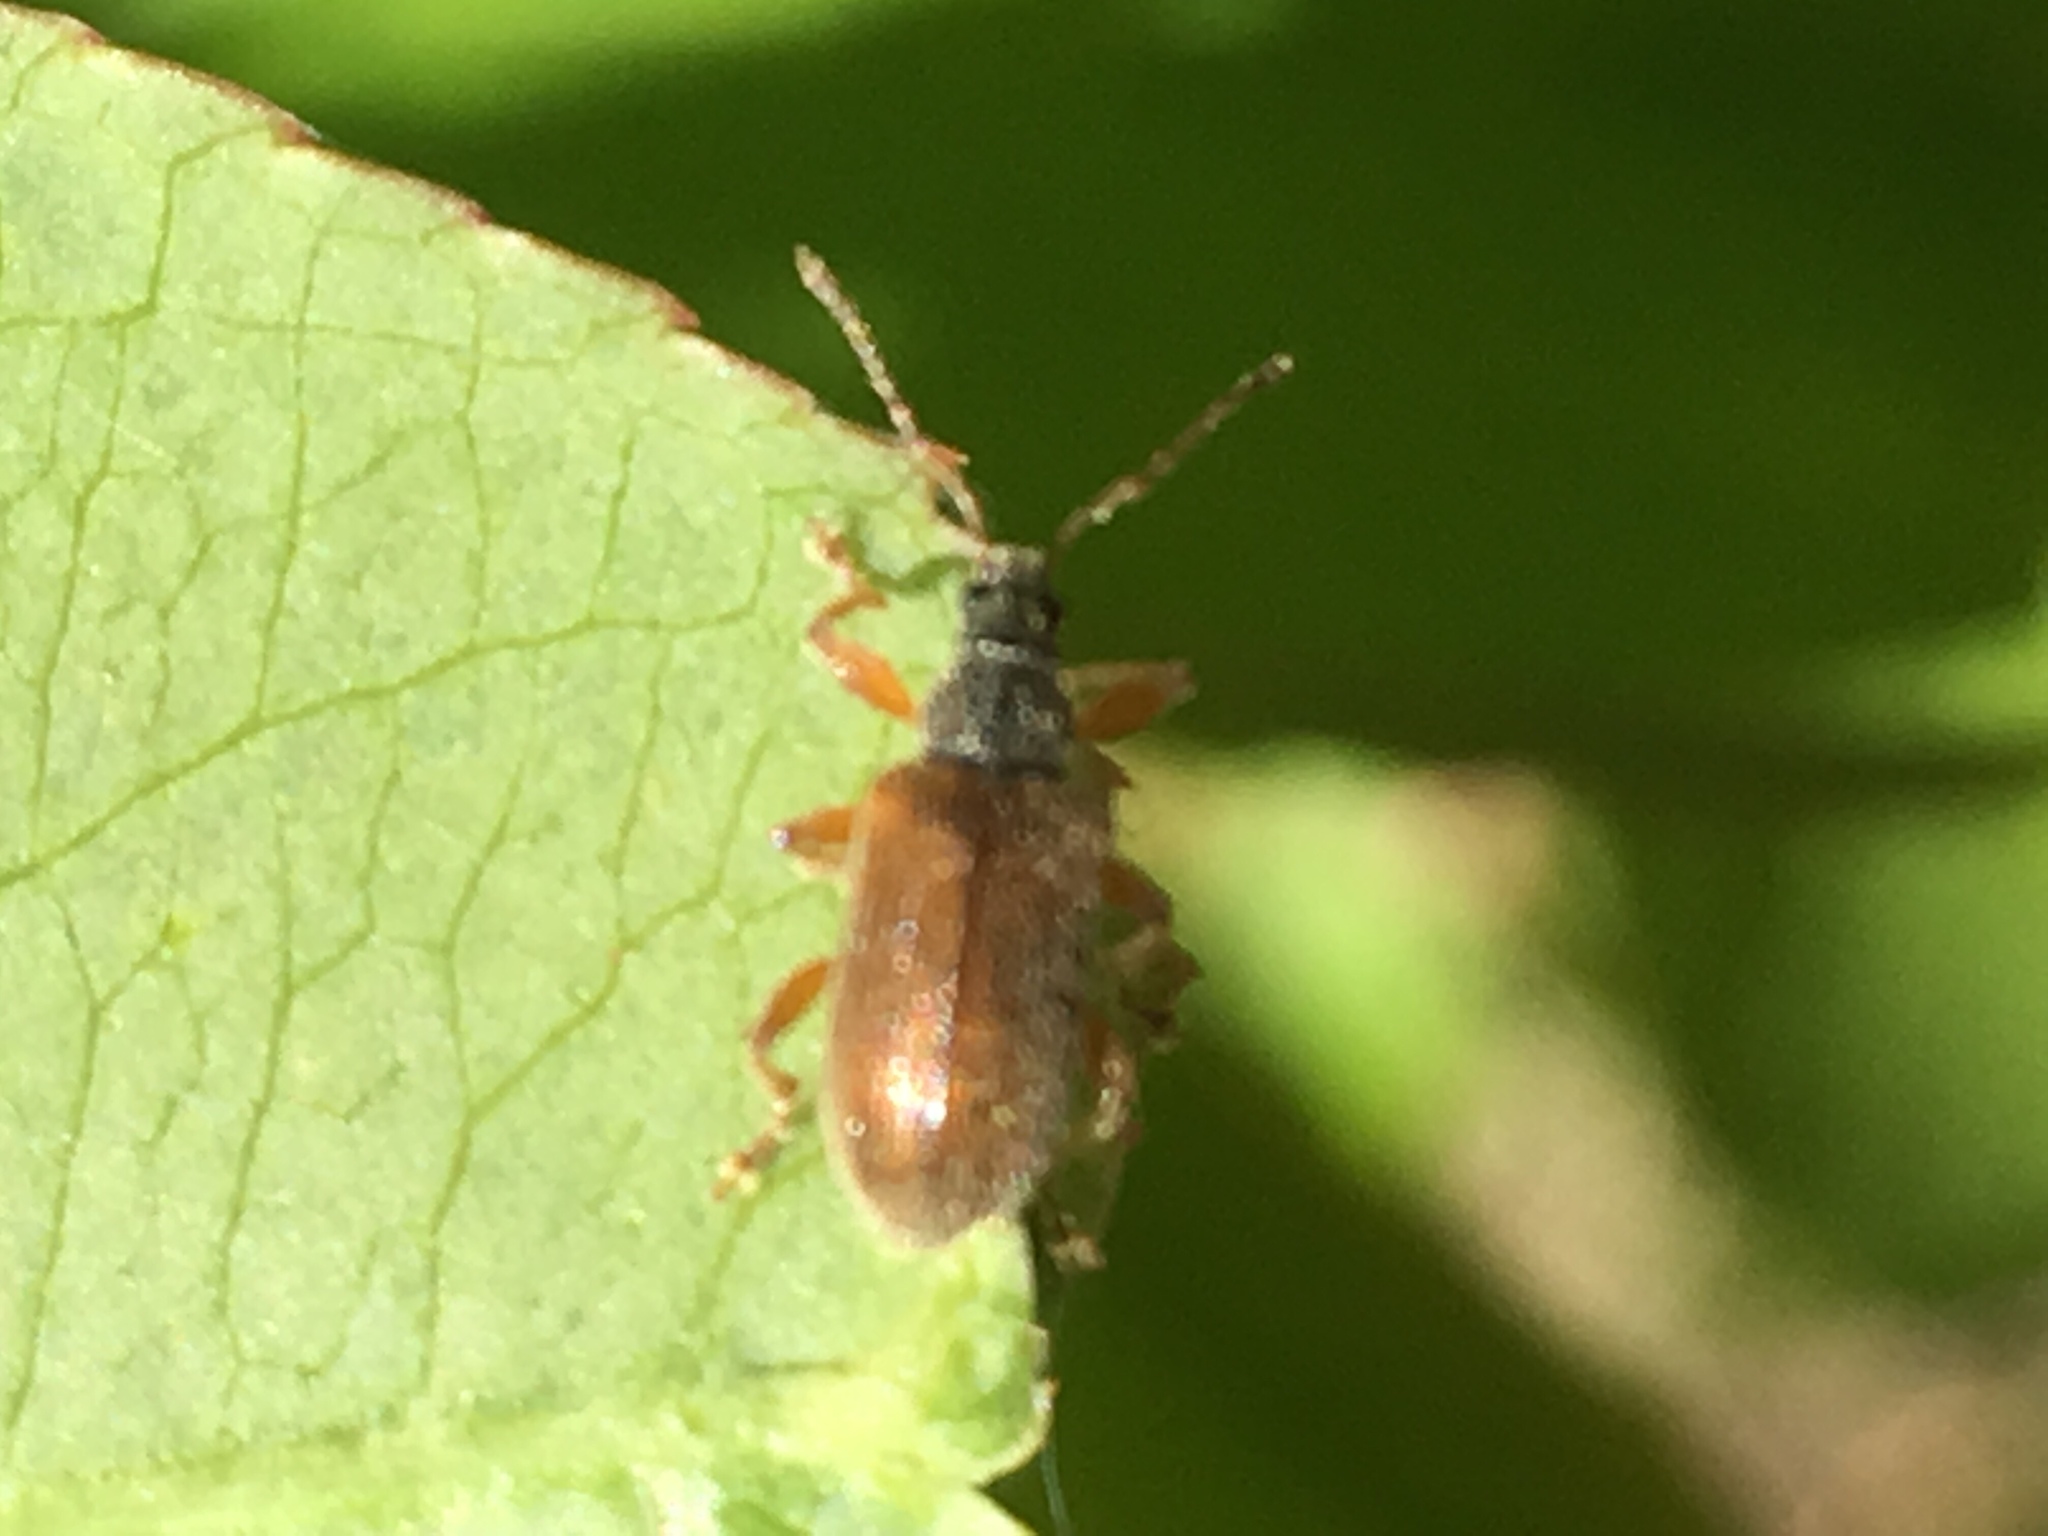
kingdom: Animalia
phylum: Arthropoda
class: Insecta
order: Coleoptera
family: Curculionidae
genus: Phyllobius
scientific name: Phyllobius oblongus
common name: Brown leaf weevil
